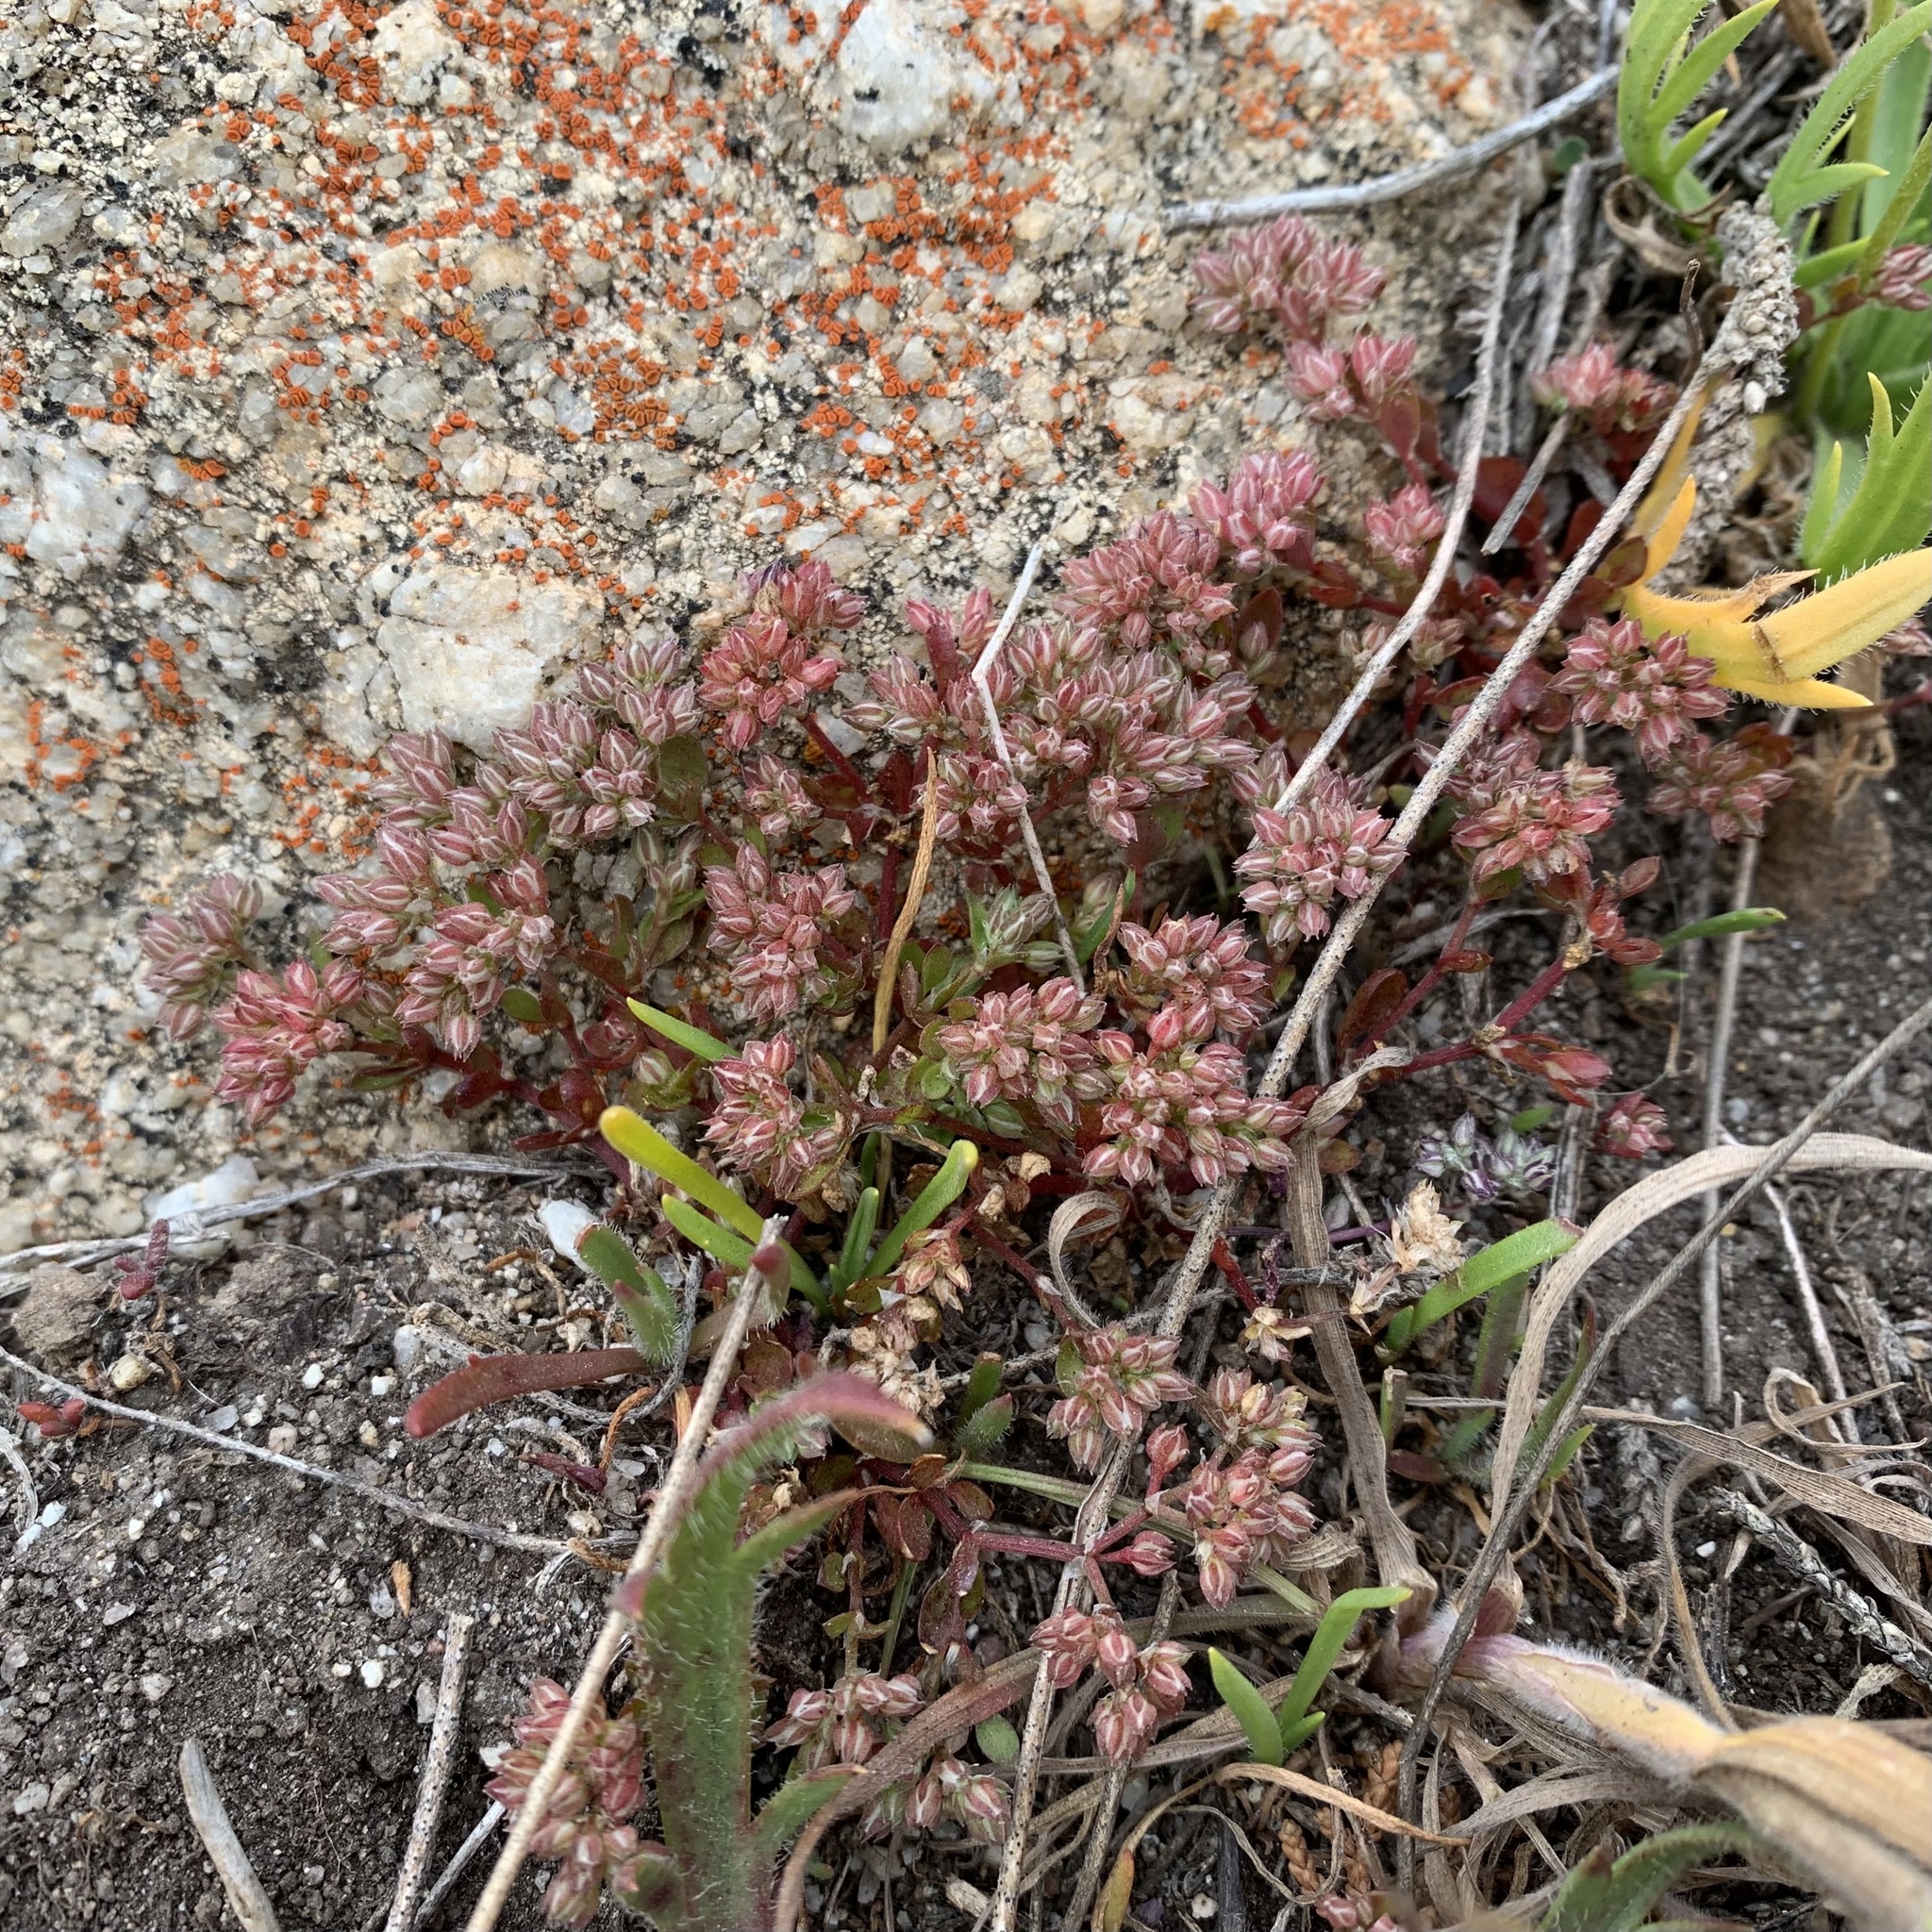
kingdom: Plantae
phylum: Tracheophyta
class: Magnoliopsida
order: Caryophyllales
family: Caryophyllaceae
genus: Polycarpon
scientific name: Polycarpon tetraphyllum
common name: Four-leaved all-seed
